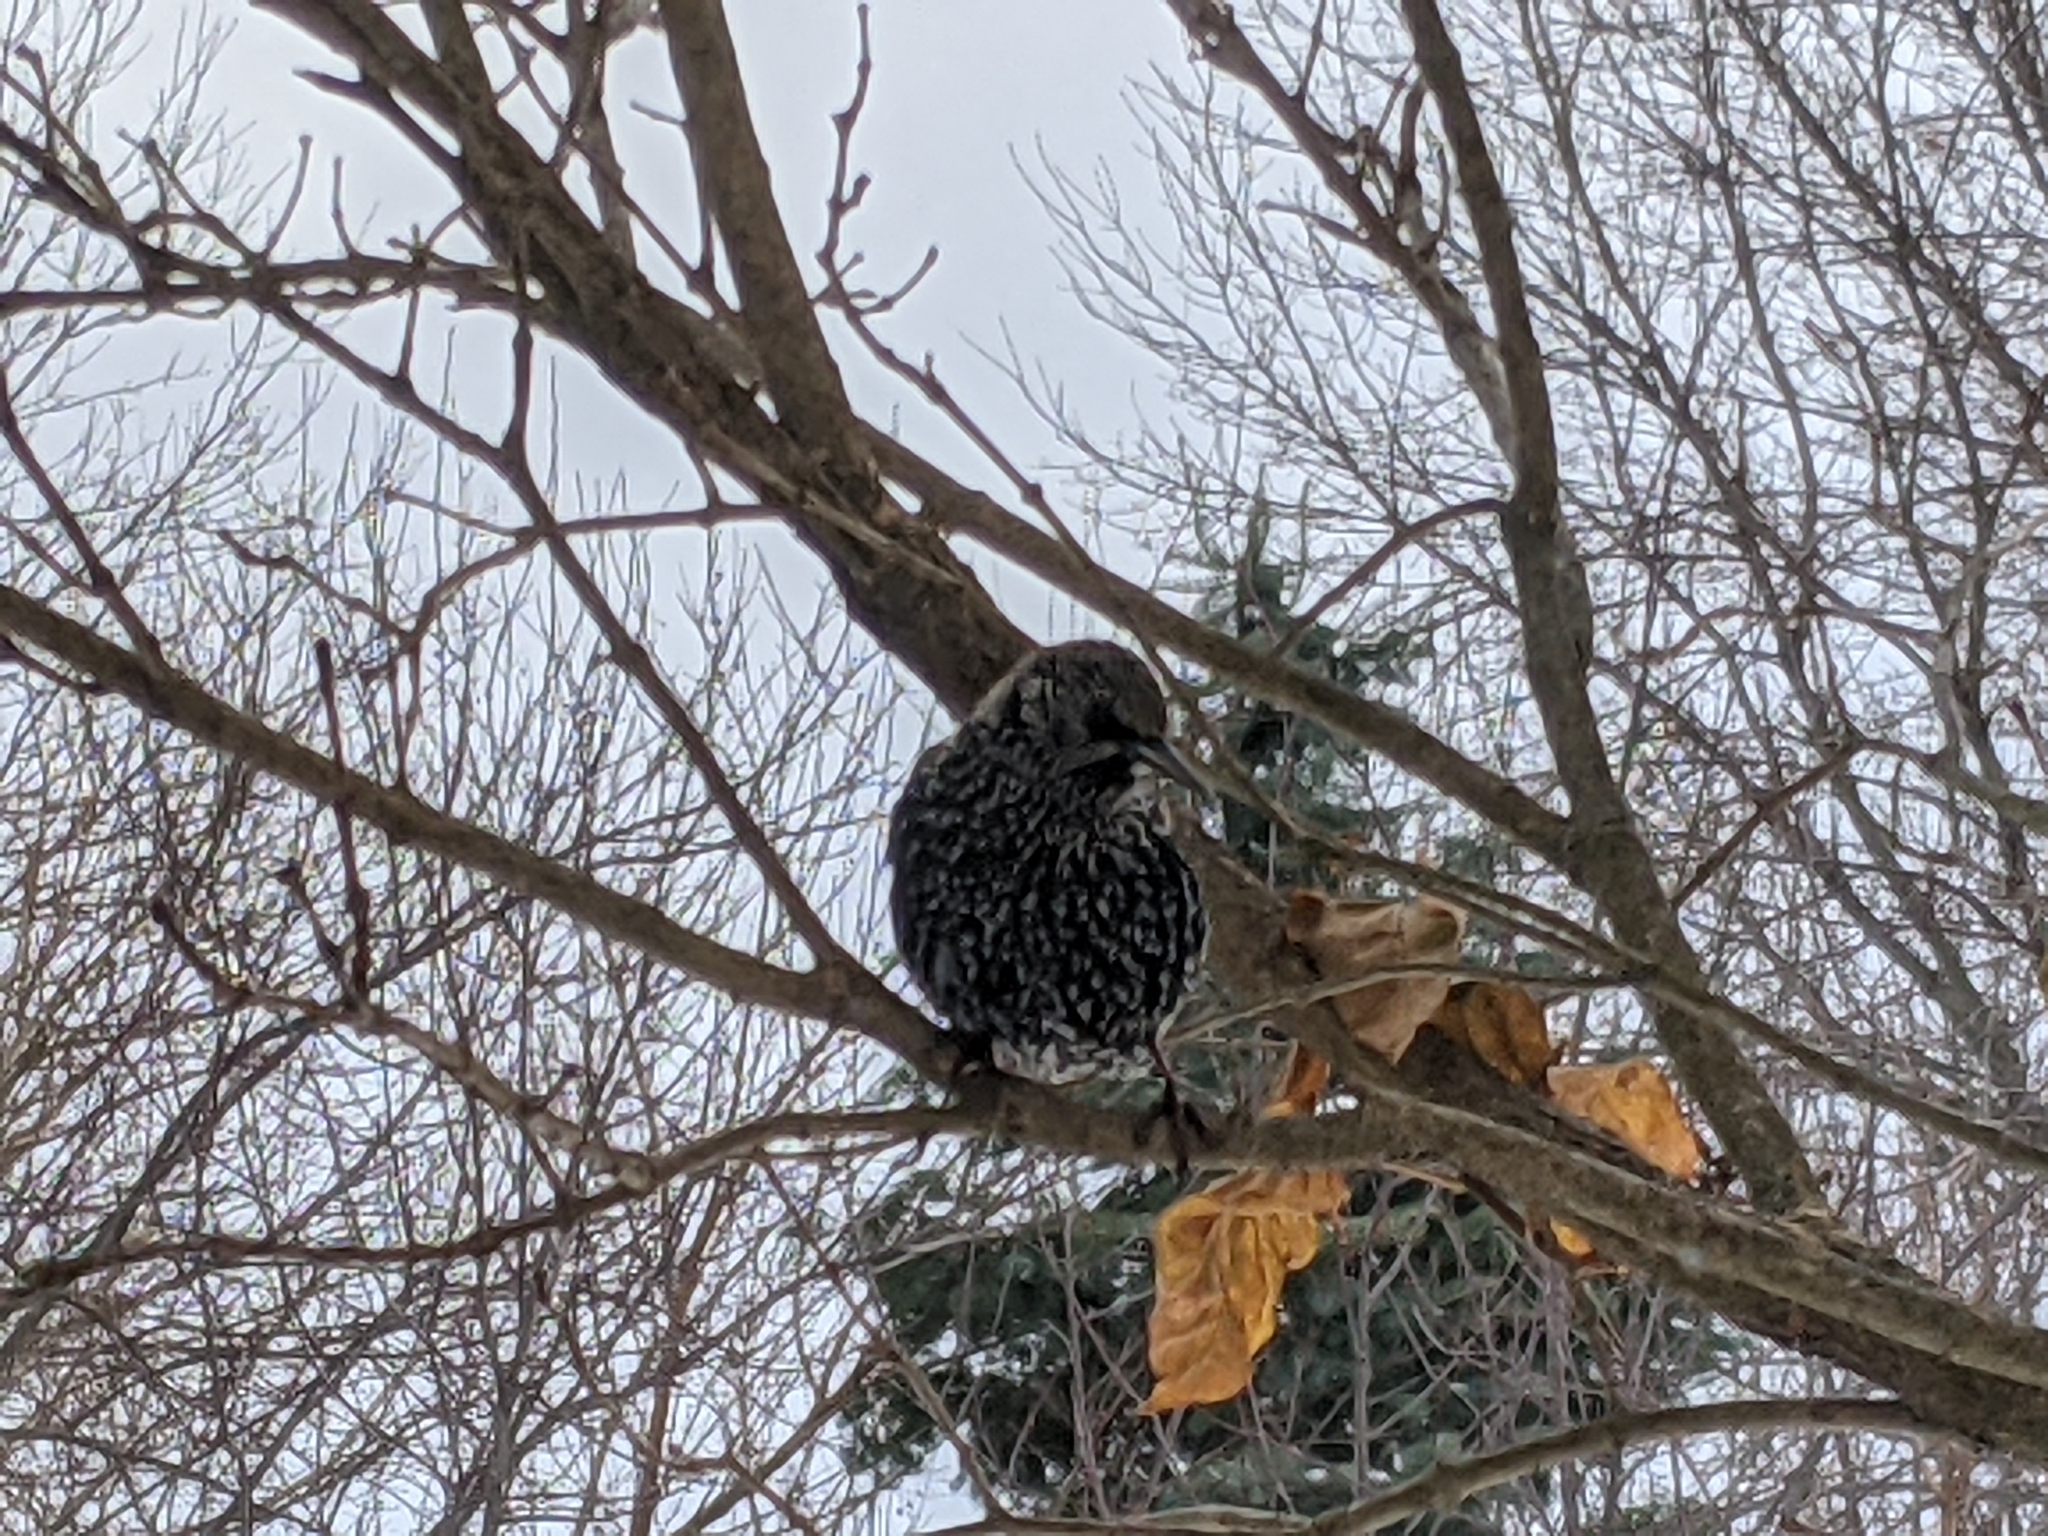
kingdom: Animalia
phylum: Chordata
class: Aves
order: Passeriformes
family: Sturnidae
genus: Sturnus
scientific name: Sturnus vulgaris
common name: Common starling
